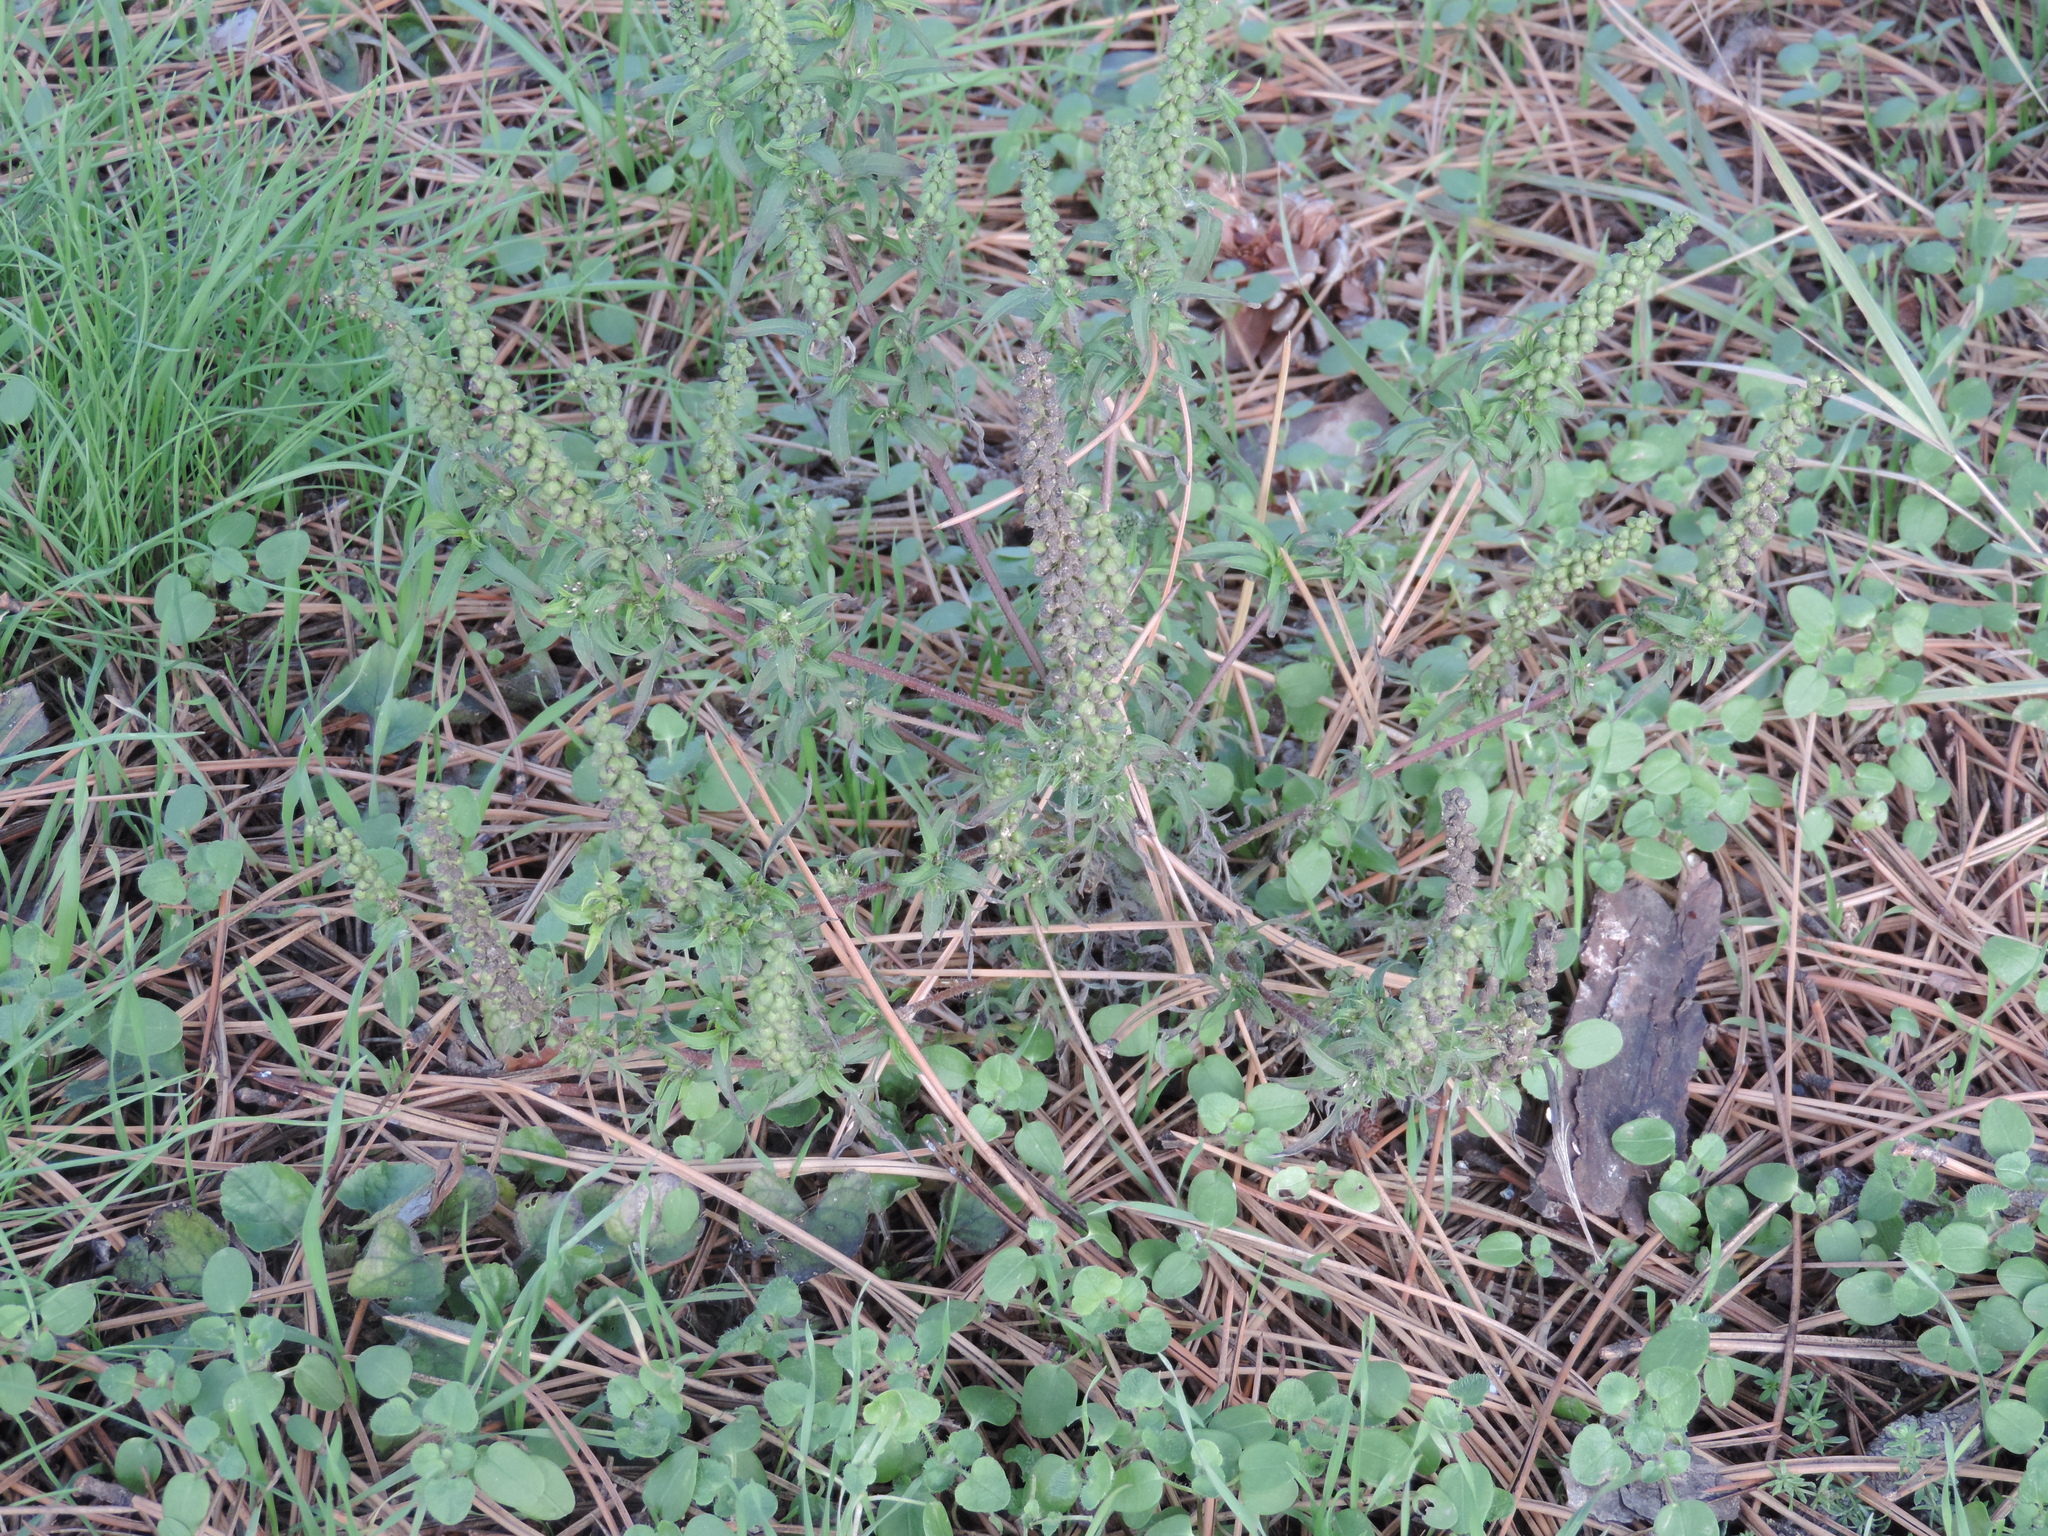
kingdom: Plantae
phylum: Tracheophyta
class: Magnoliopsida
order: Asterales
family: Asteraceae
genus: Ambrosia
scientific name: Ambrosia artemisiifolia
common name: Annual ragweed
